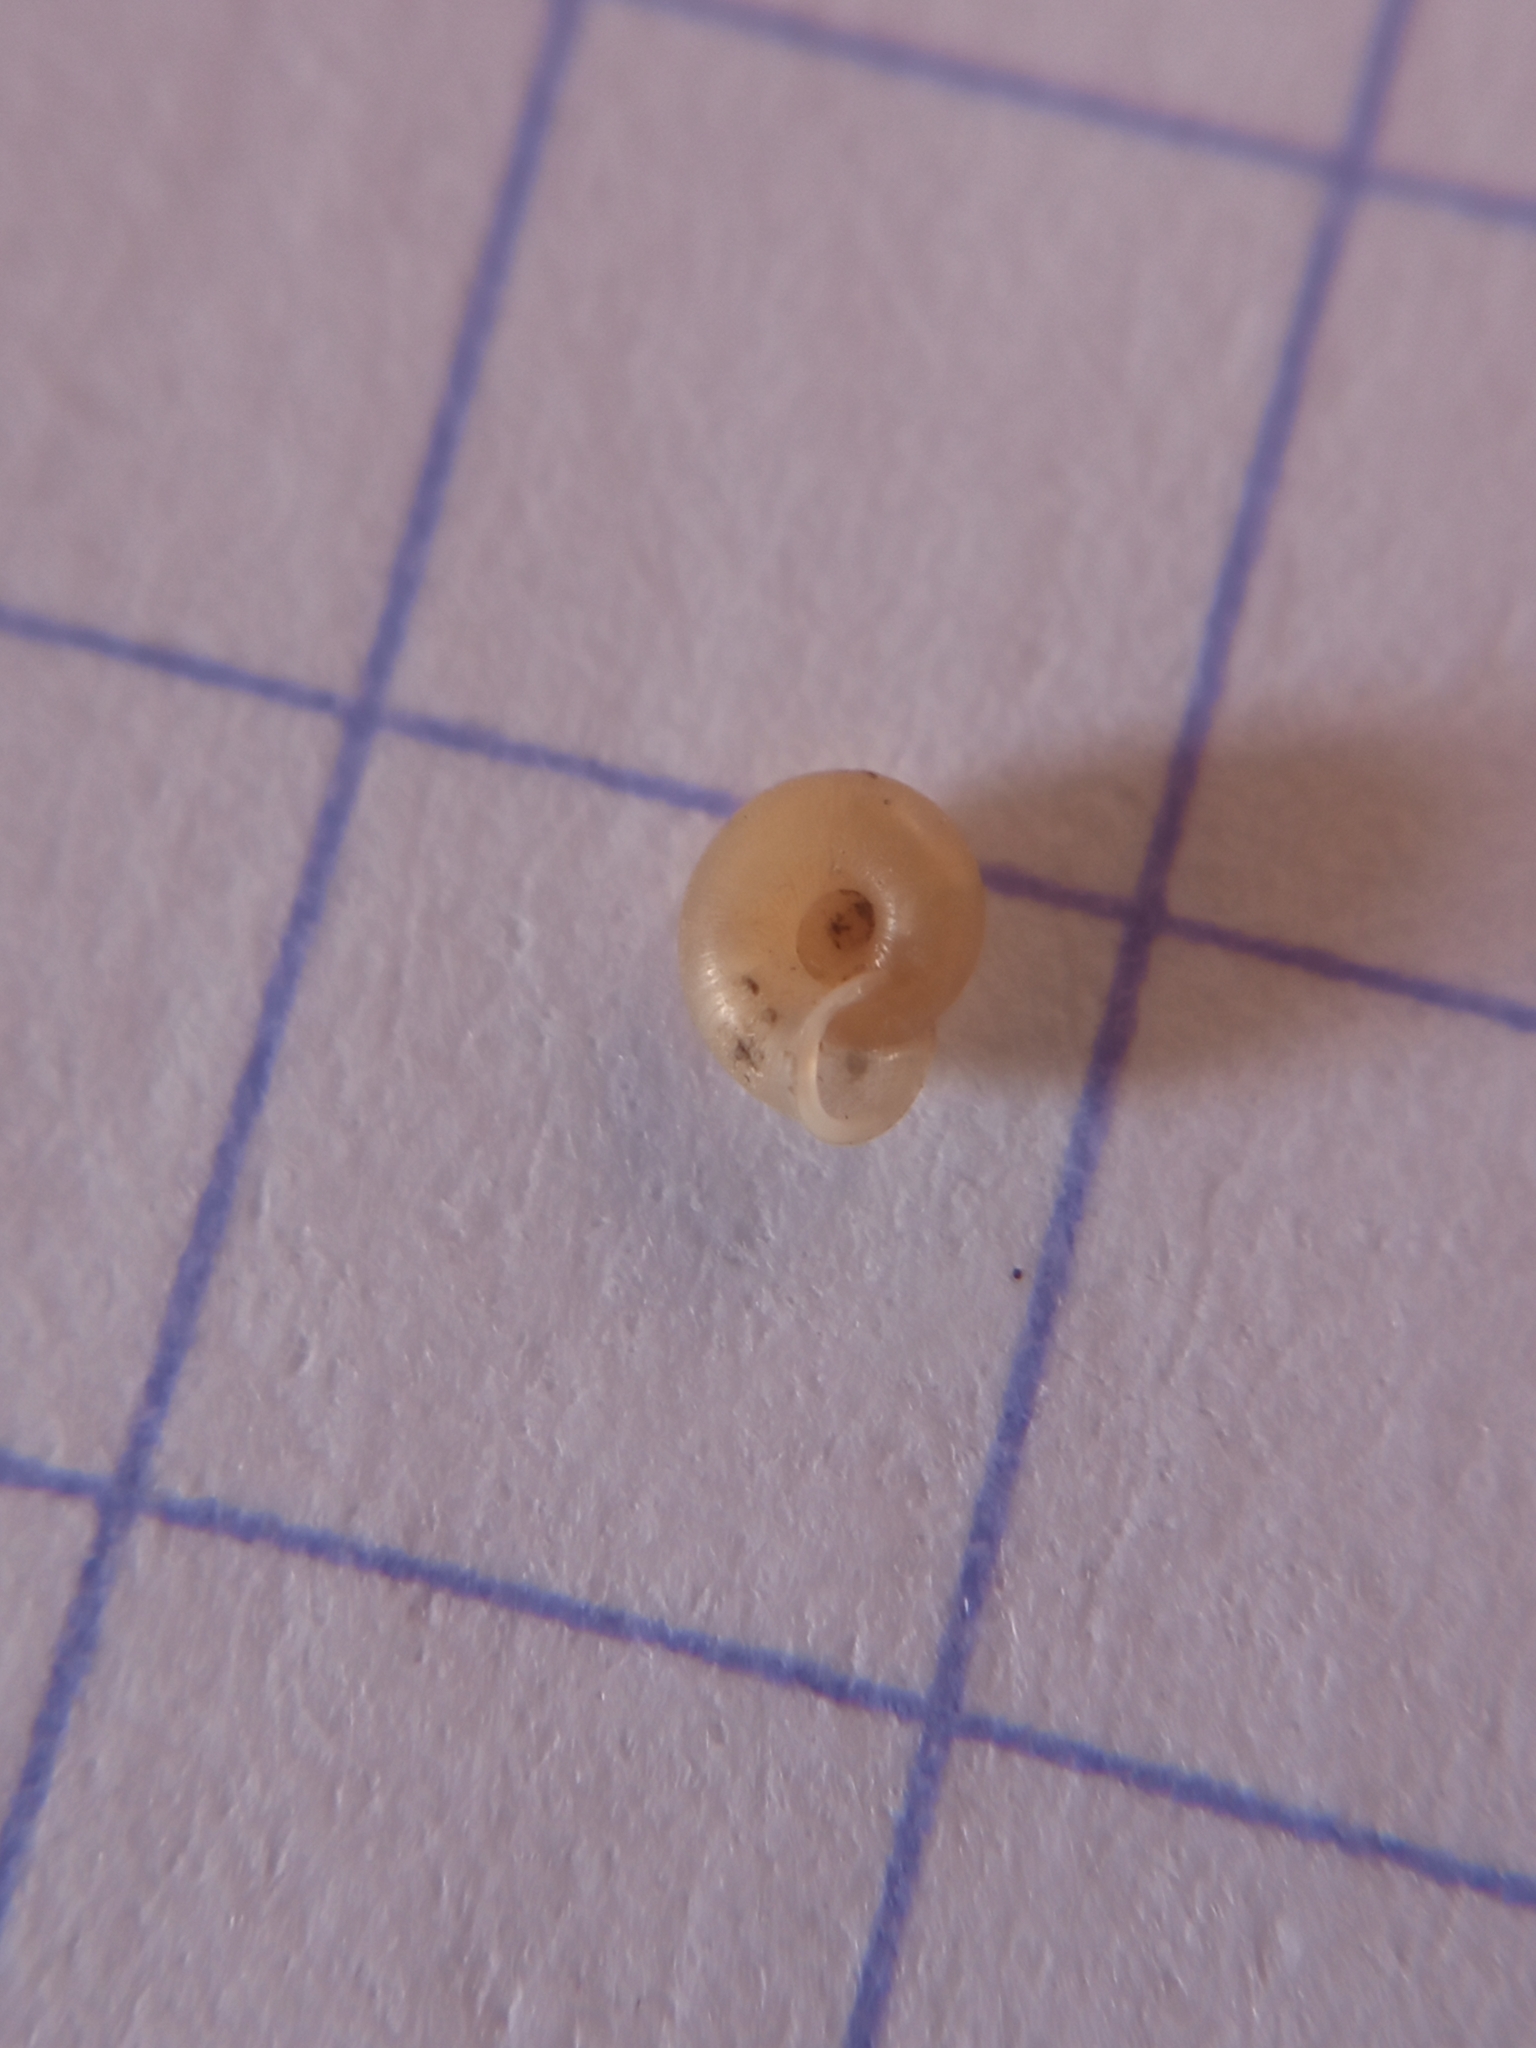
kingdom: Animalia
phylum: Mollusca
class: Gastropoda
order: Stylommatophora
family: Valloniidae
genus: Vallonia
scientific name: Vallonia pulchella
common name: Smooth grass snail
